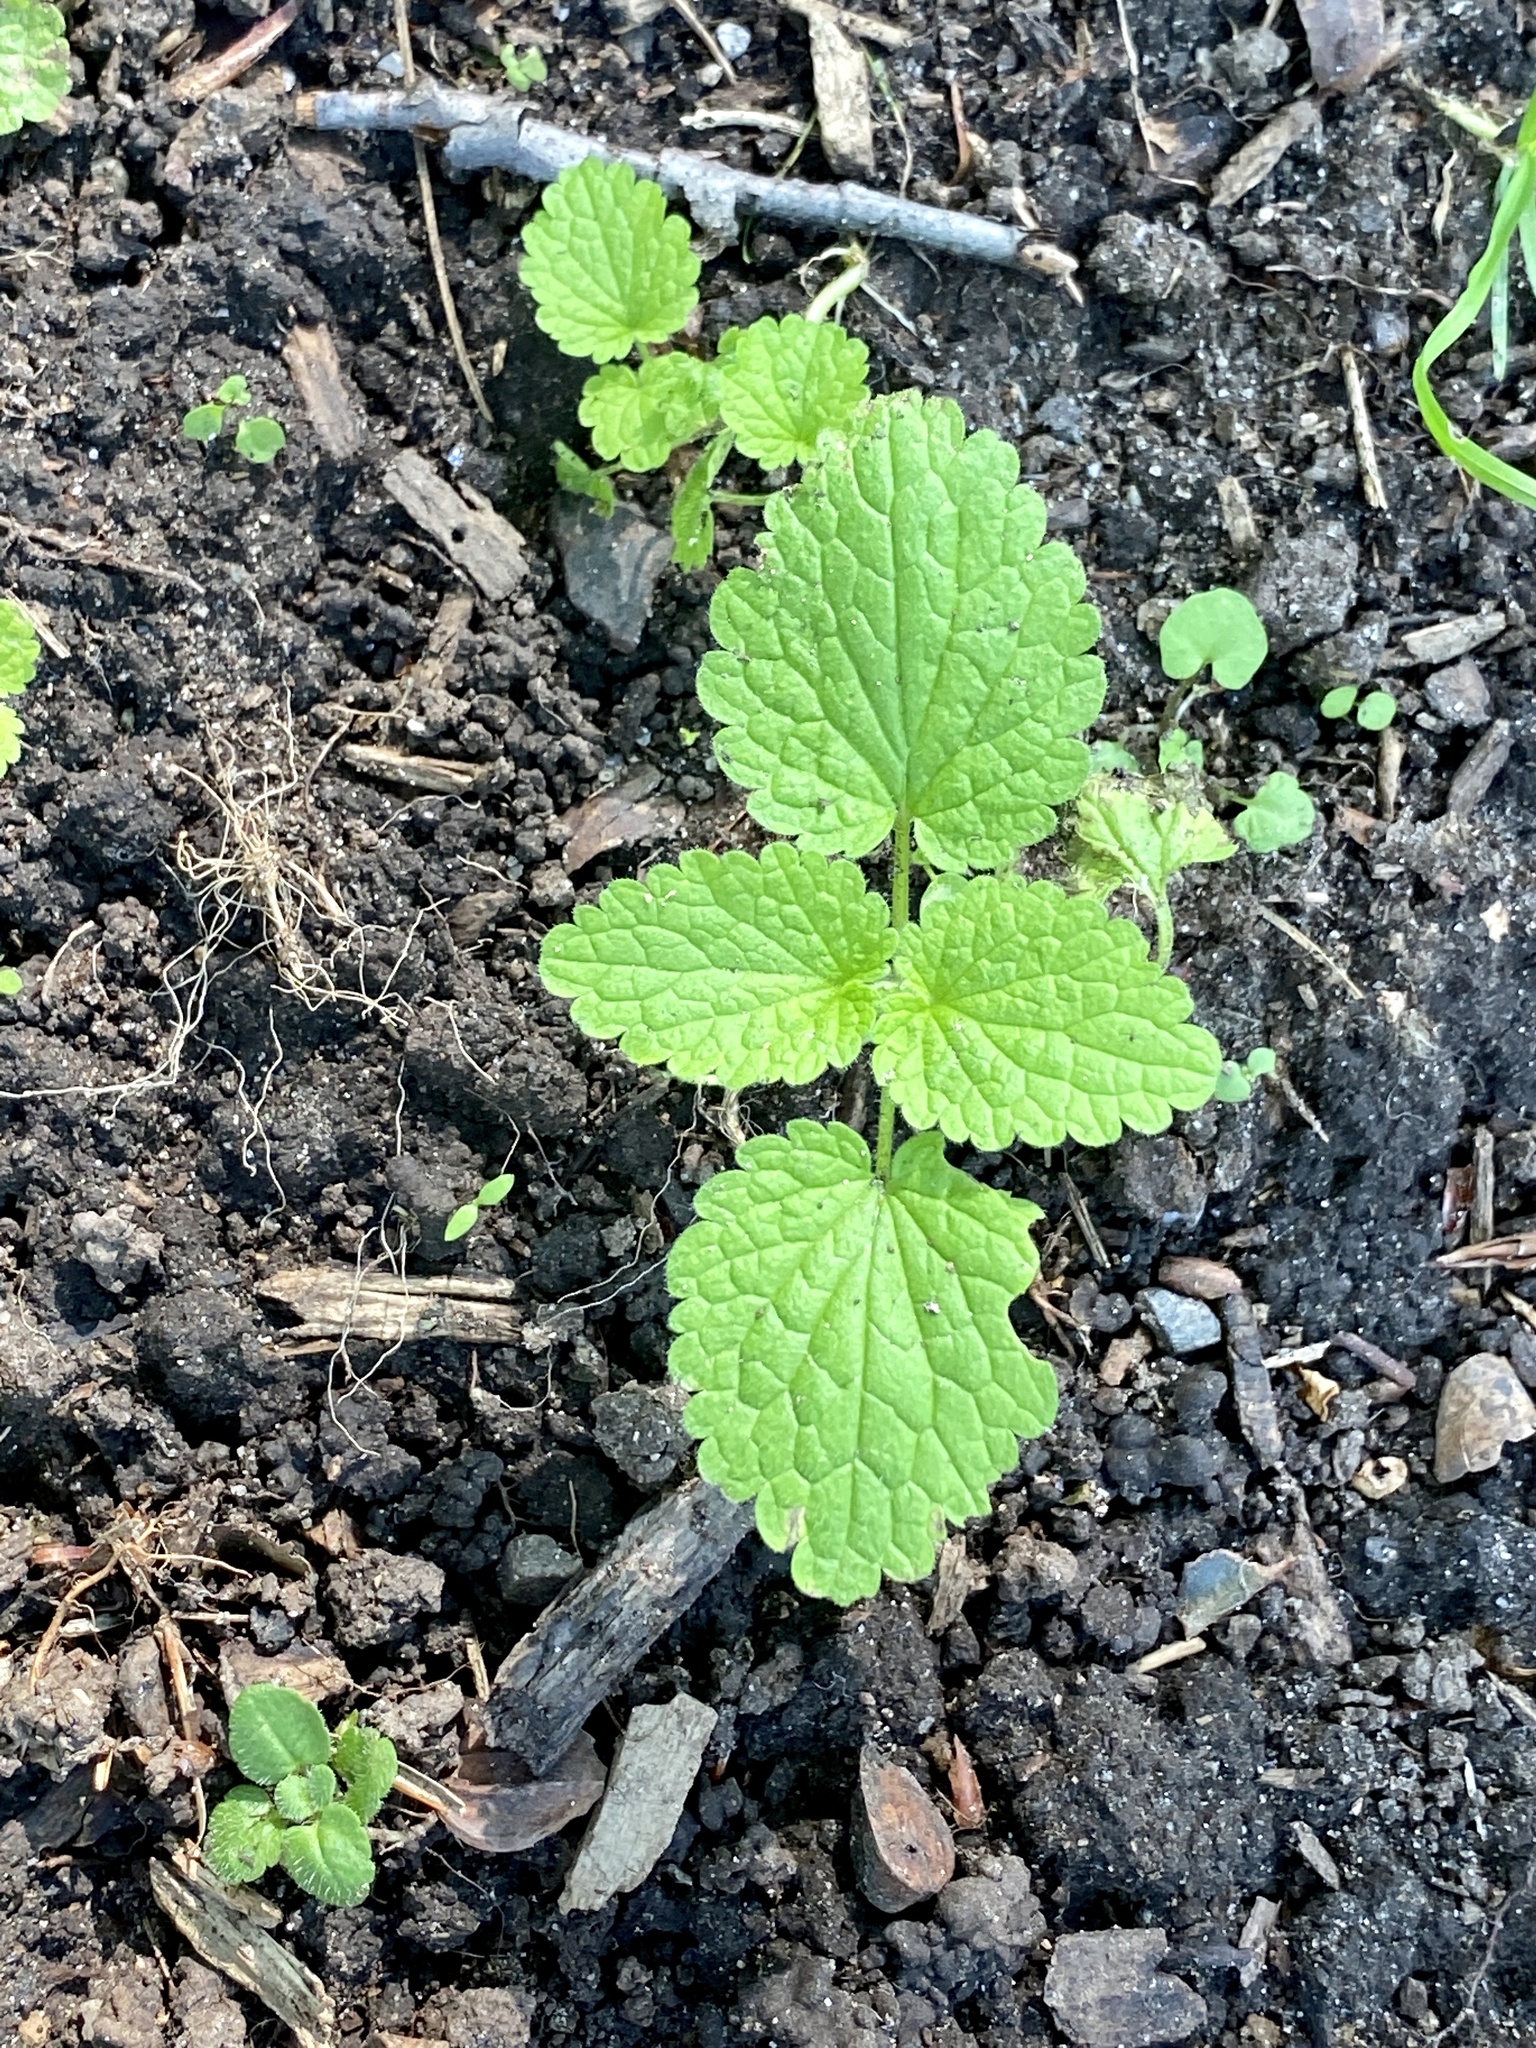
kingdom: Plantae
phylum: Tracheophyta
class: Magnoliopsida
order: Lamiales
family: Lamiaceae
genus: Lamium
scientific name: Lamium purpureum
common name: Red dead-nettle
